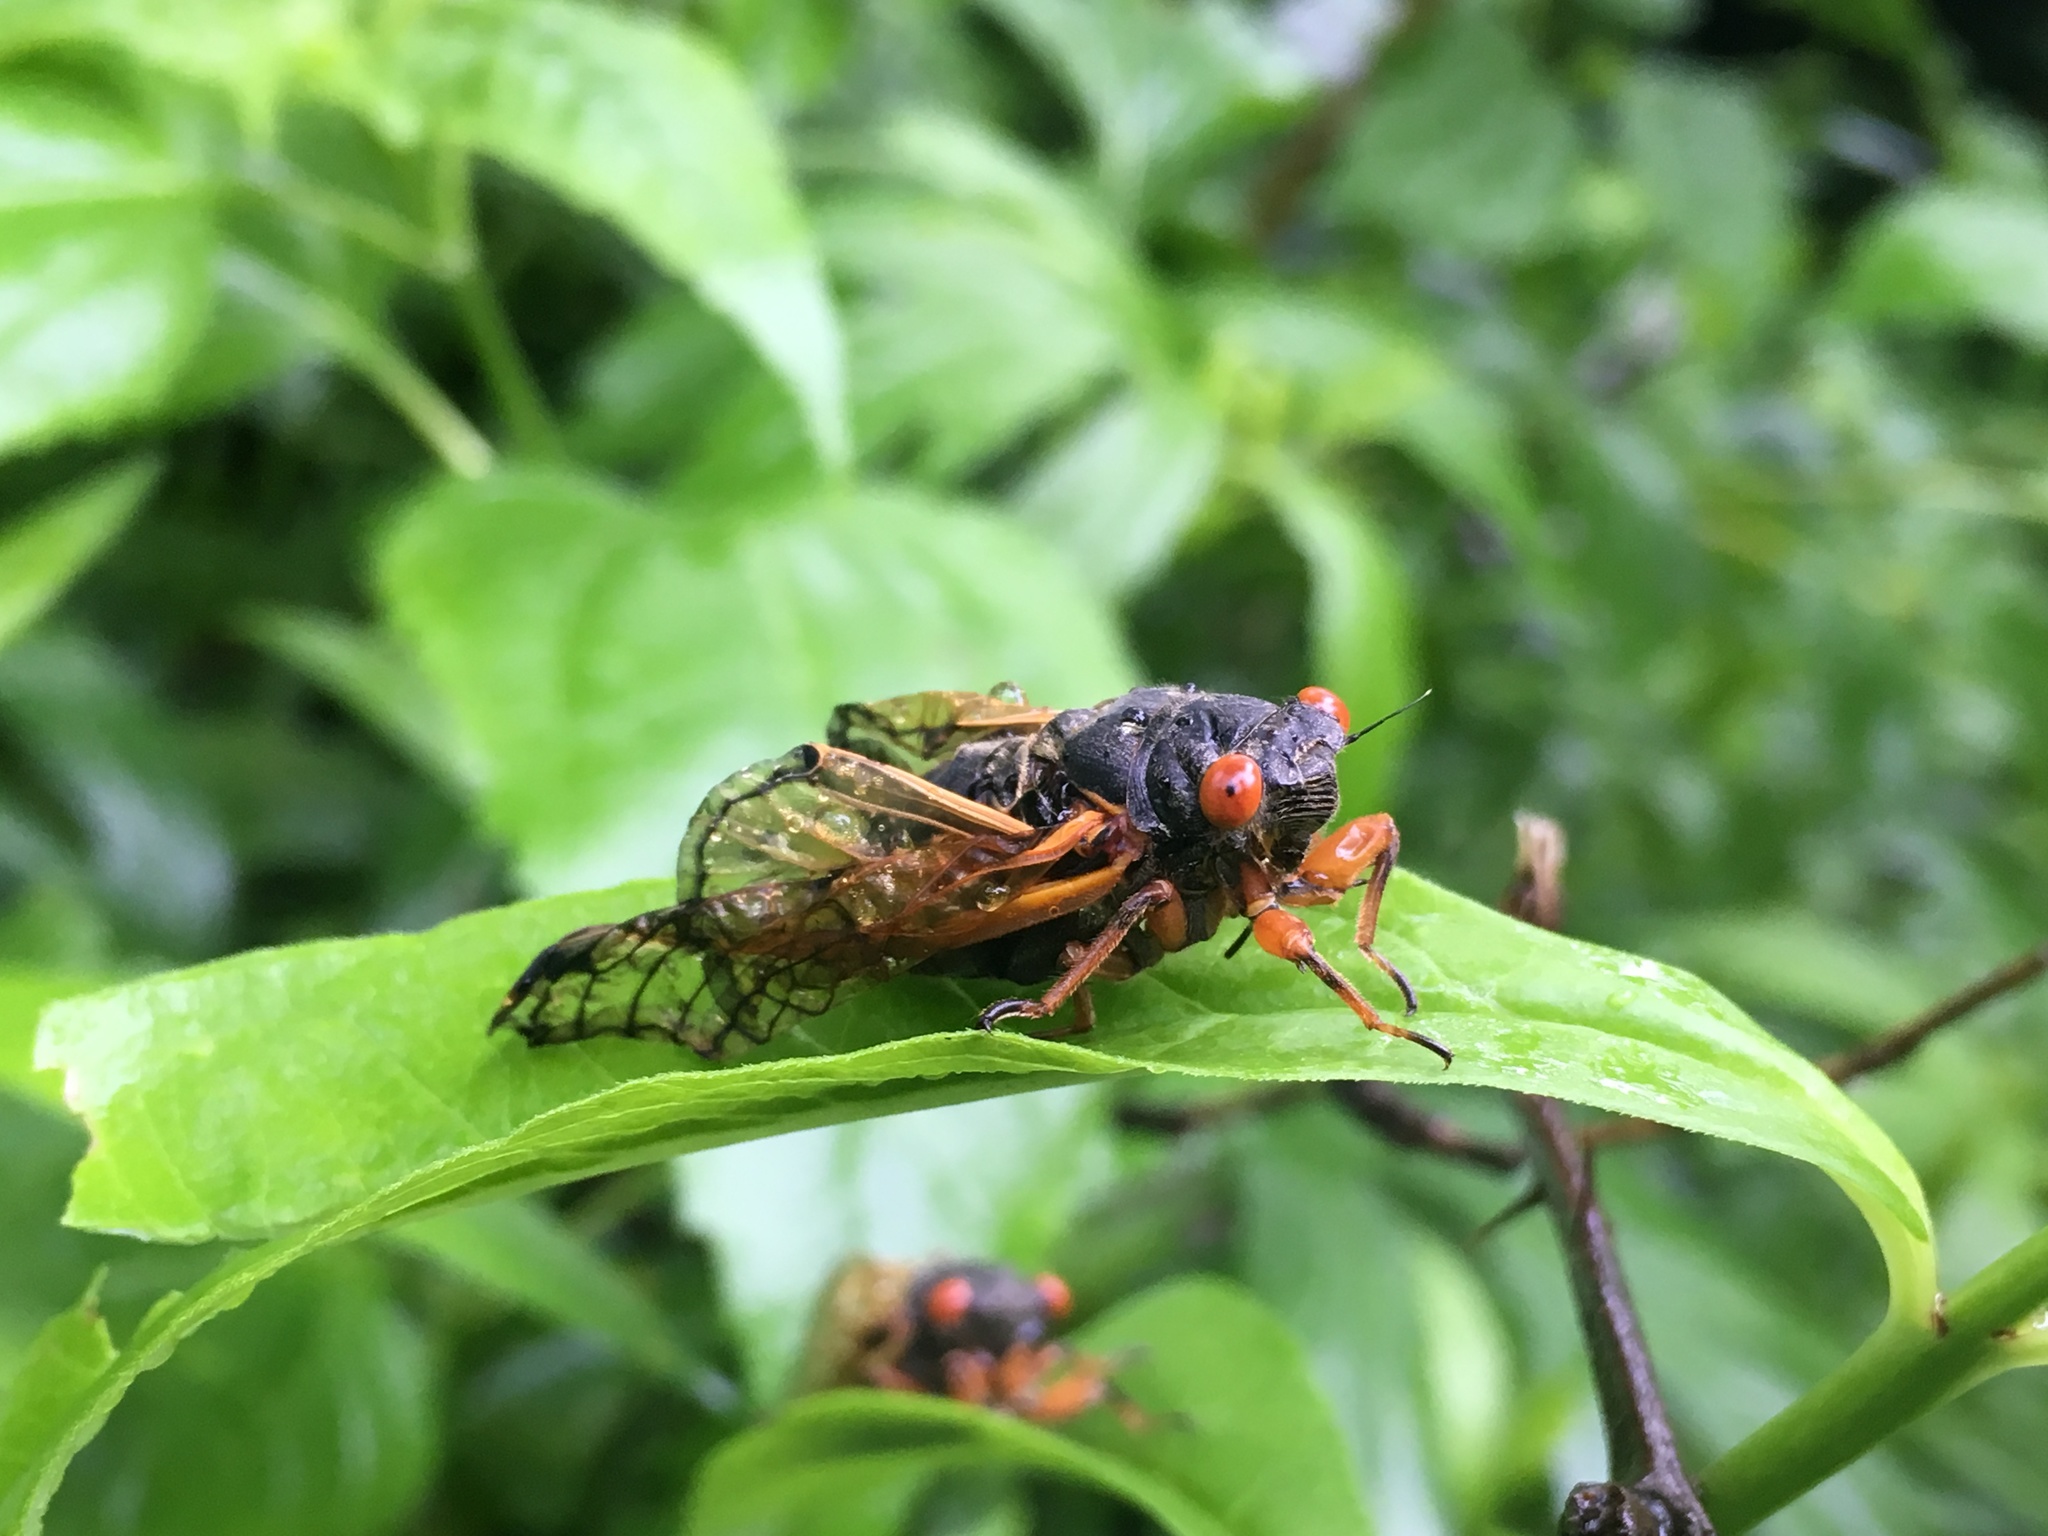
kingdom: Animalia
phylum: Arthropoda
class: Insecta
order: Hemiptera
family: Cicadidae
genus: Magicicada
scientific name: Magicicada cassini
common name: Cassin's 17-year cicada
